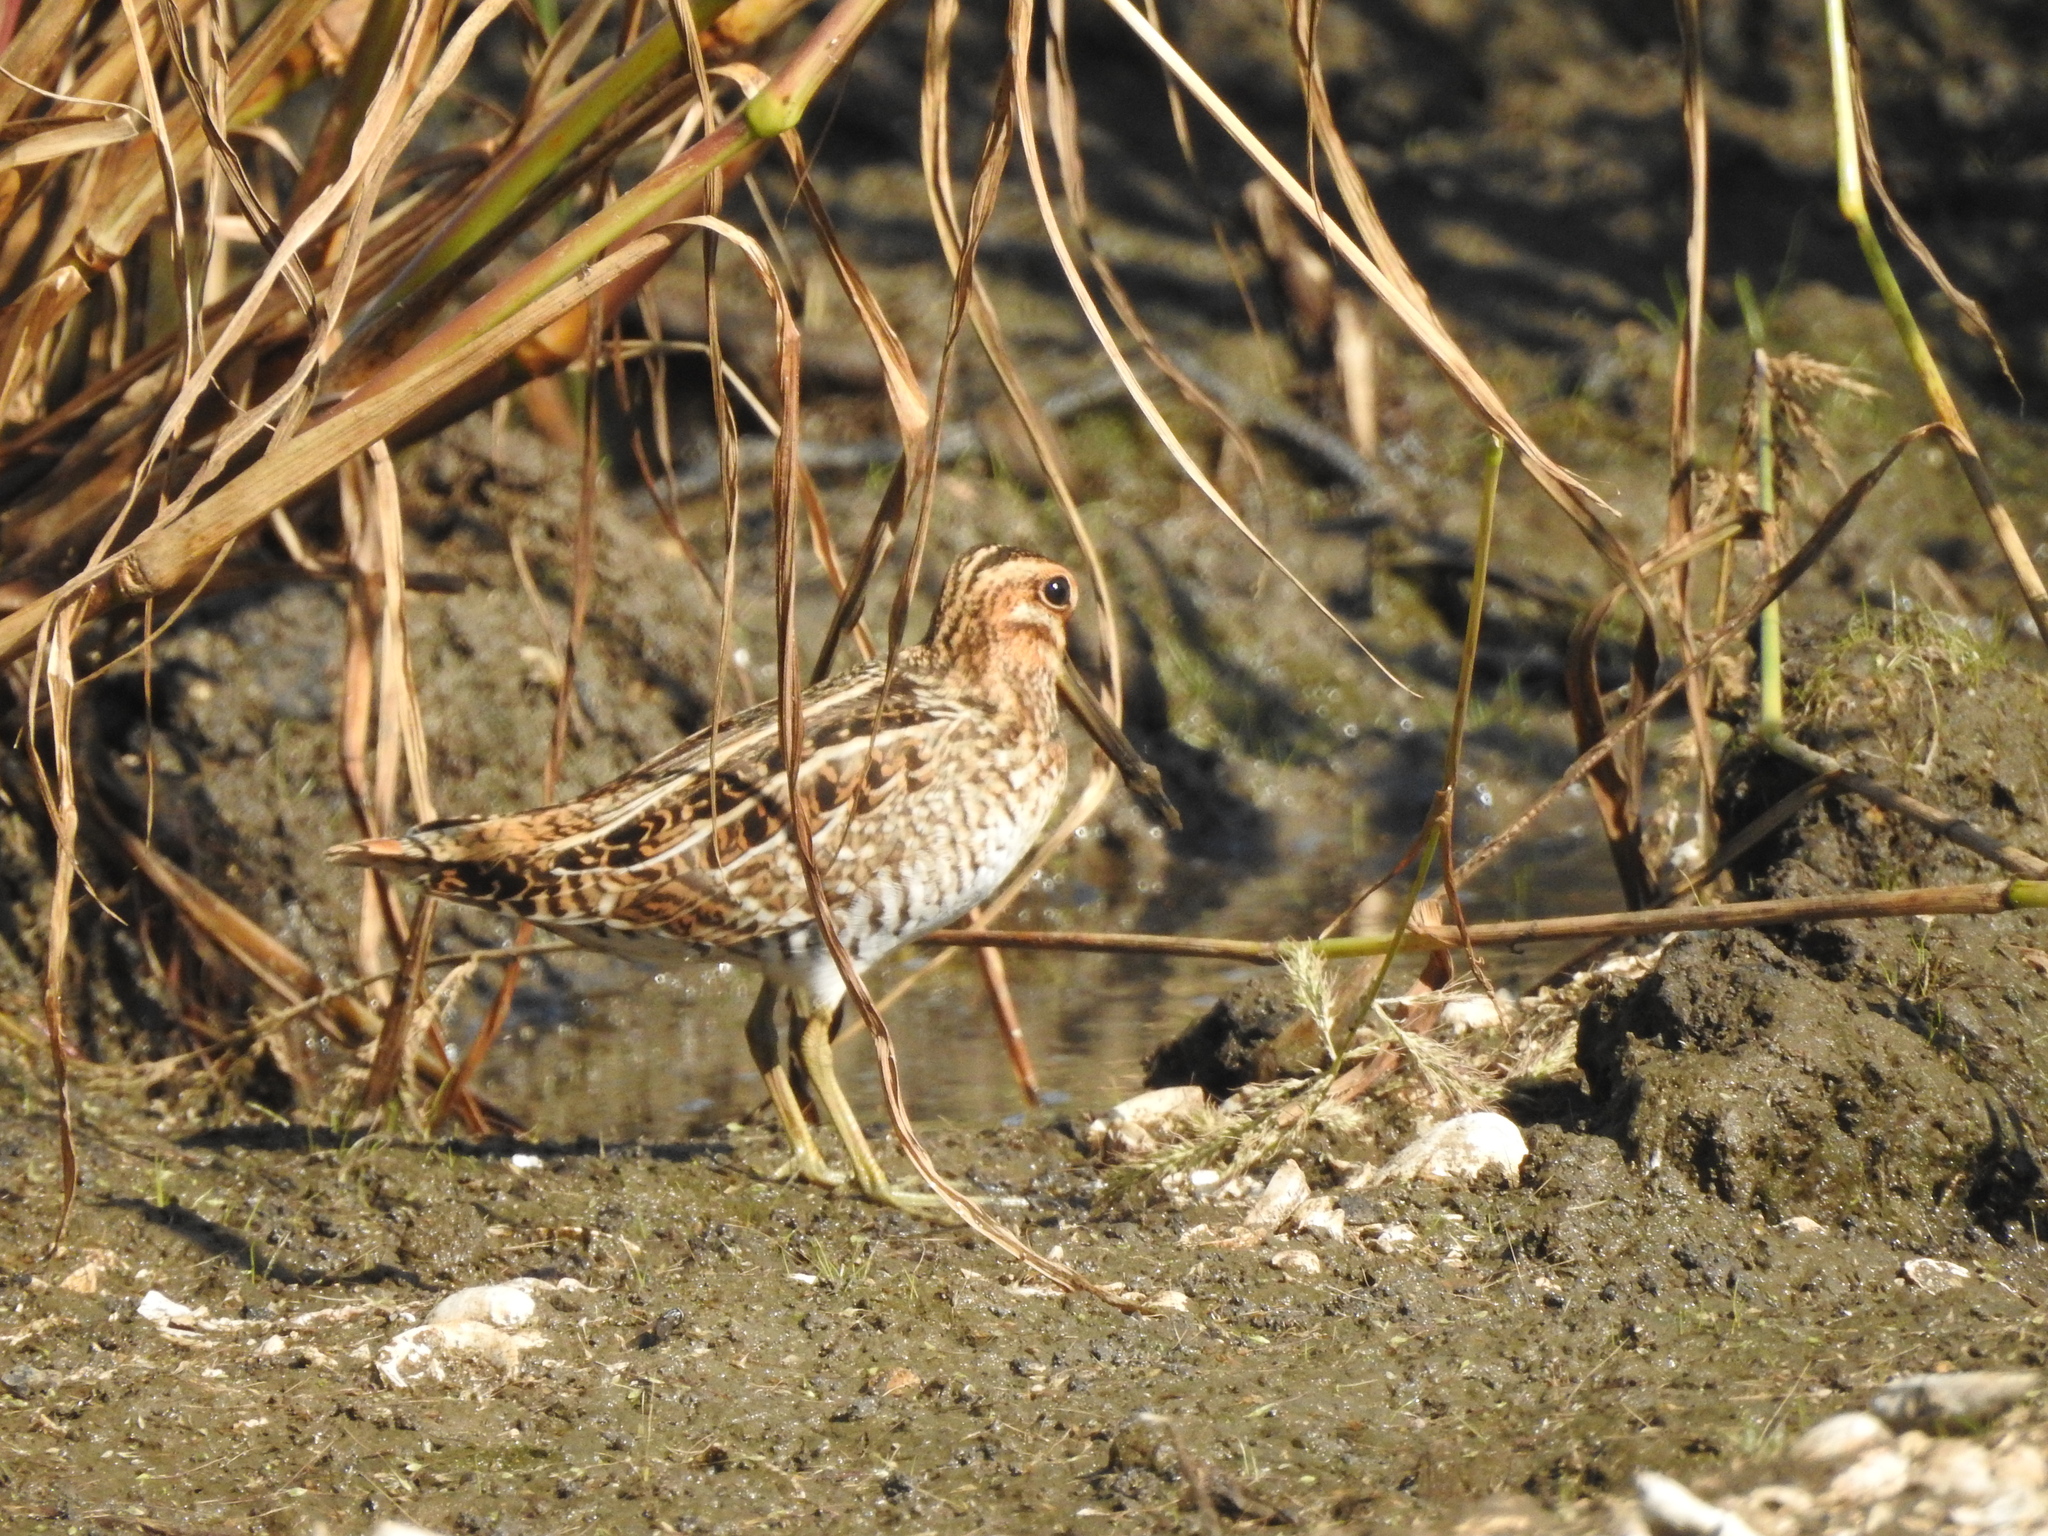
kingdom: Animalia
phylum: Chordata
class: Aves
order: Charadriiformes
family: Scolopacidae
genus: Gallinago
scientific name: Gallinago delicata
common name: Wilson's snipe
